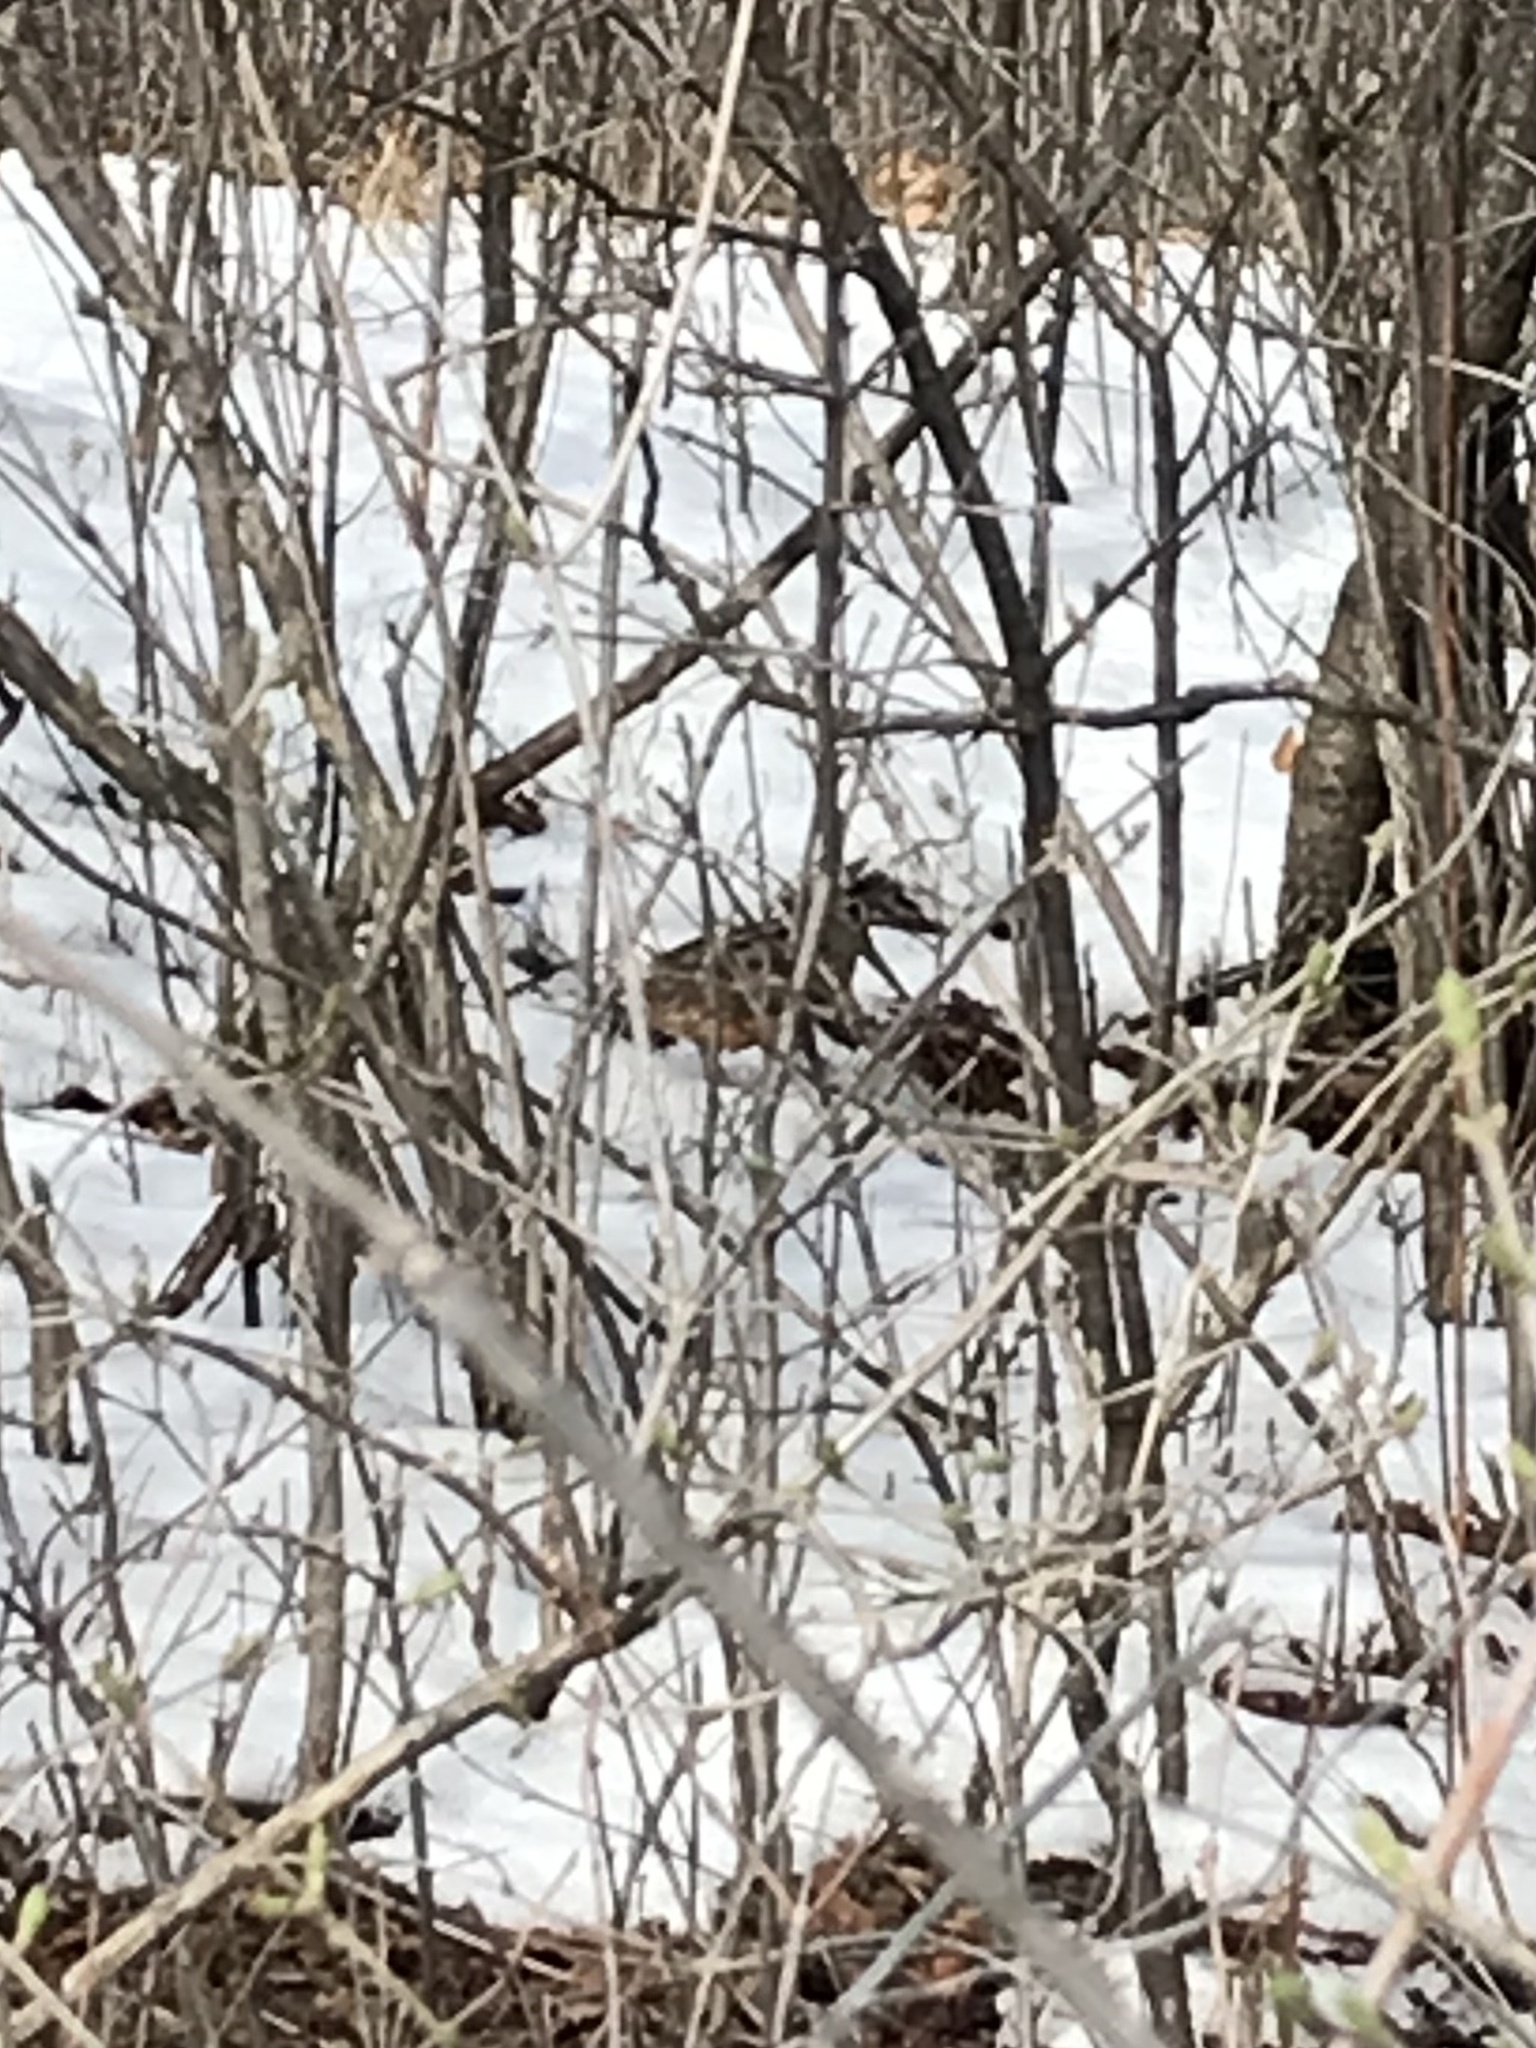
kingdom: Animalia
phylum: Chordata
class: Aves
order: Charadriiformes
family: Scolopacidae
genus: Scolopax
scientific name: Scolopax minor
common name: American woodcock
